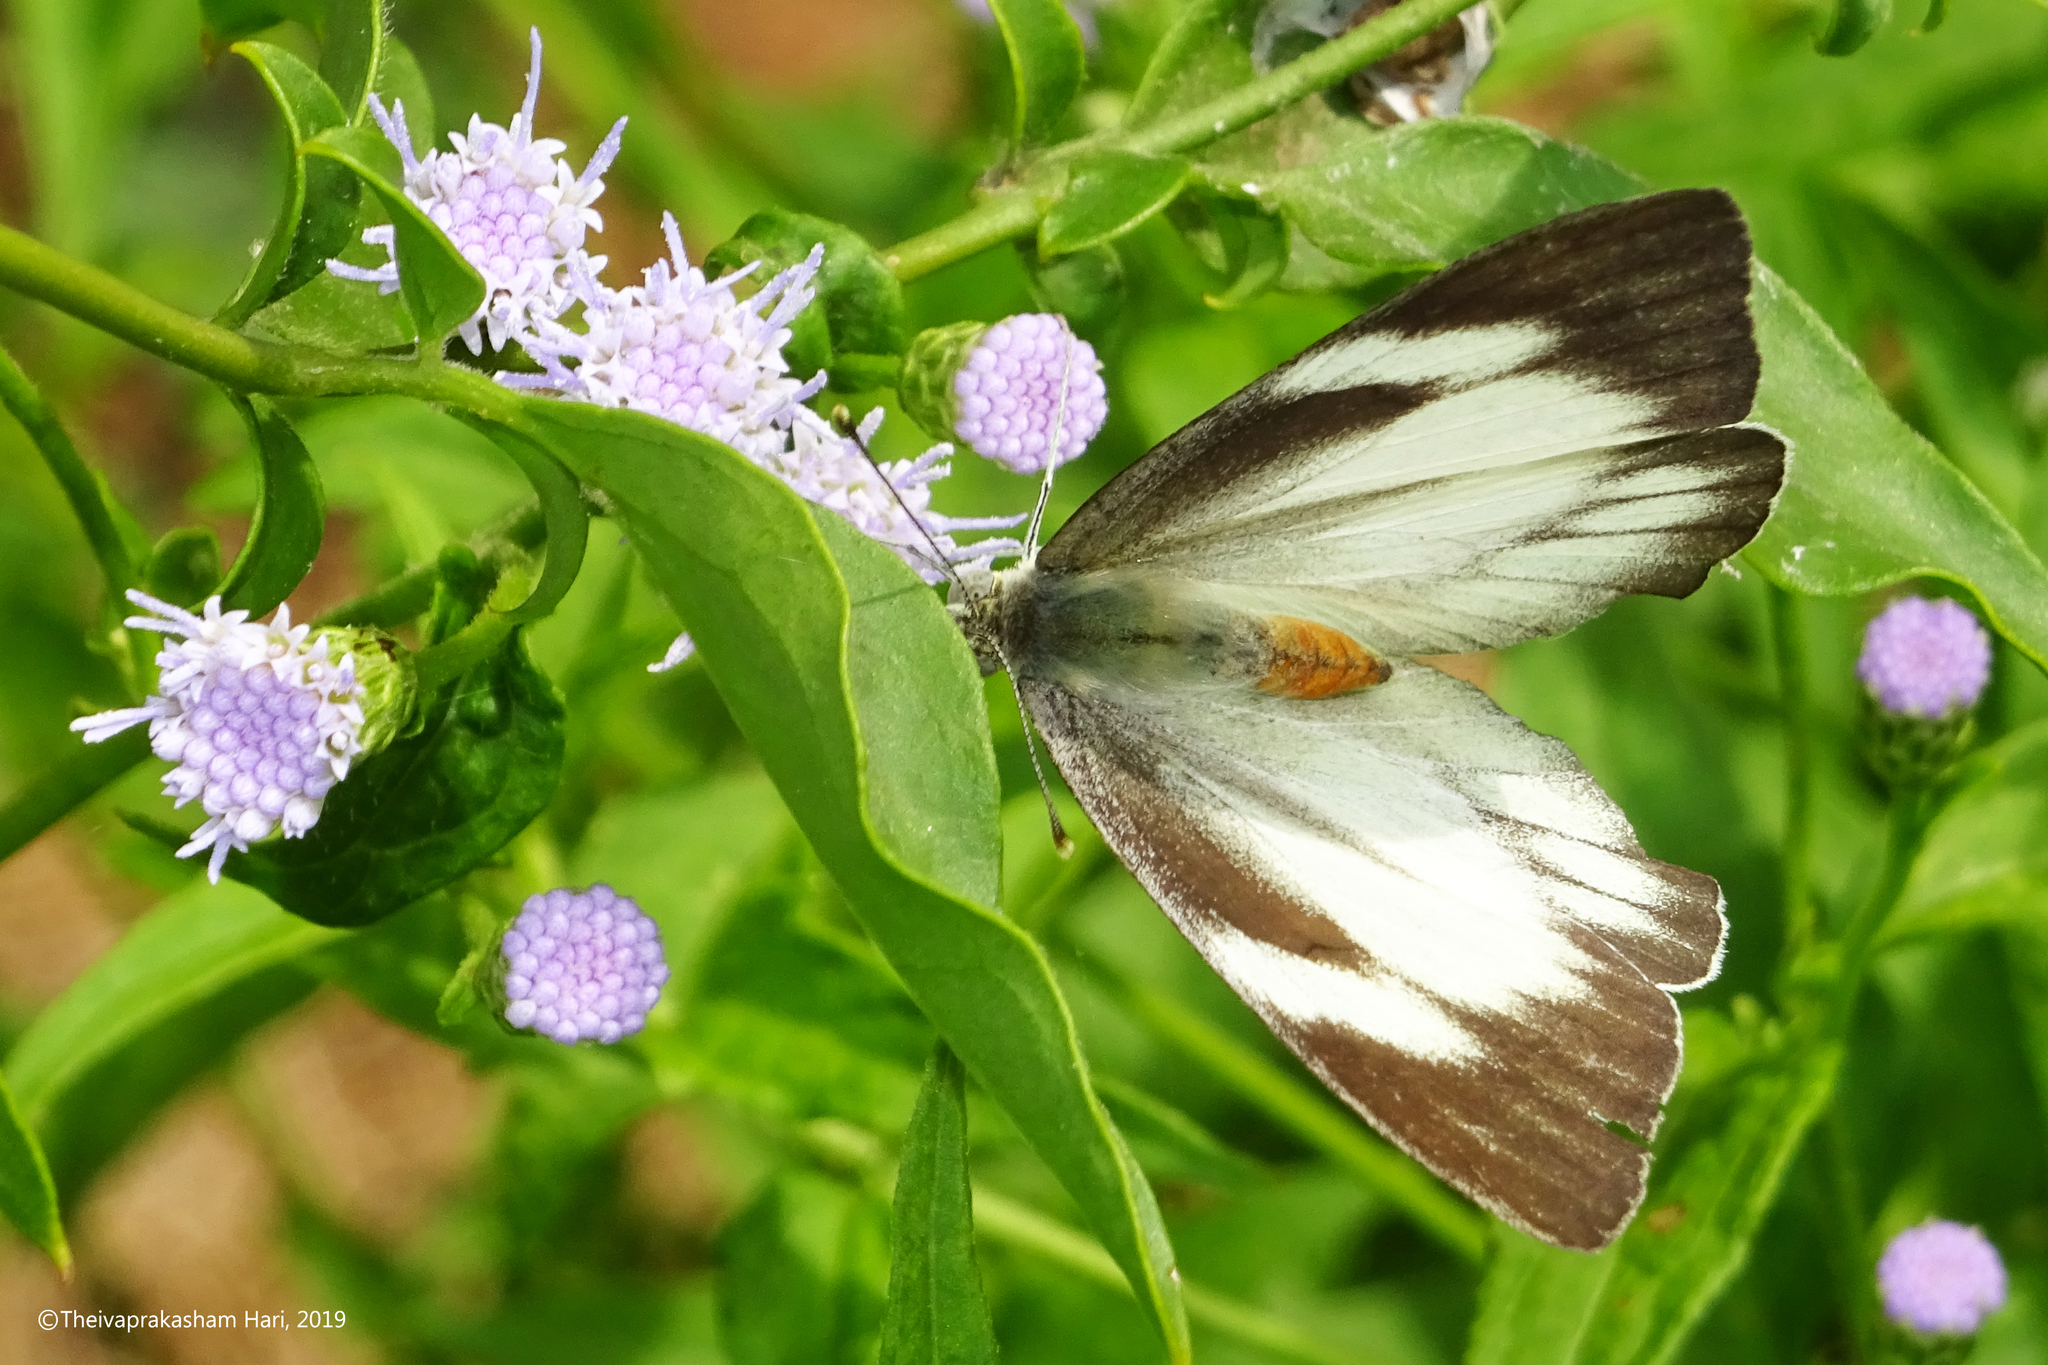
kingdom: Animalia
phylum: Arthropoda
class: Insecta
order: Lepidoptera
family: Pieridae
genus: Appias
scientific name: Appias libythea
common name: Striped albatross
